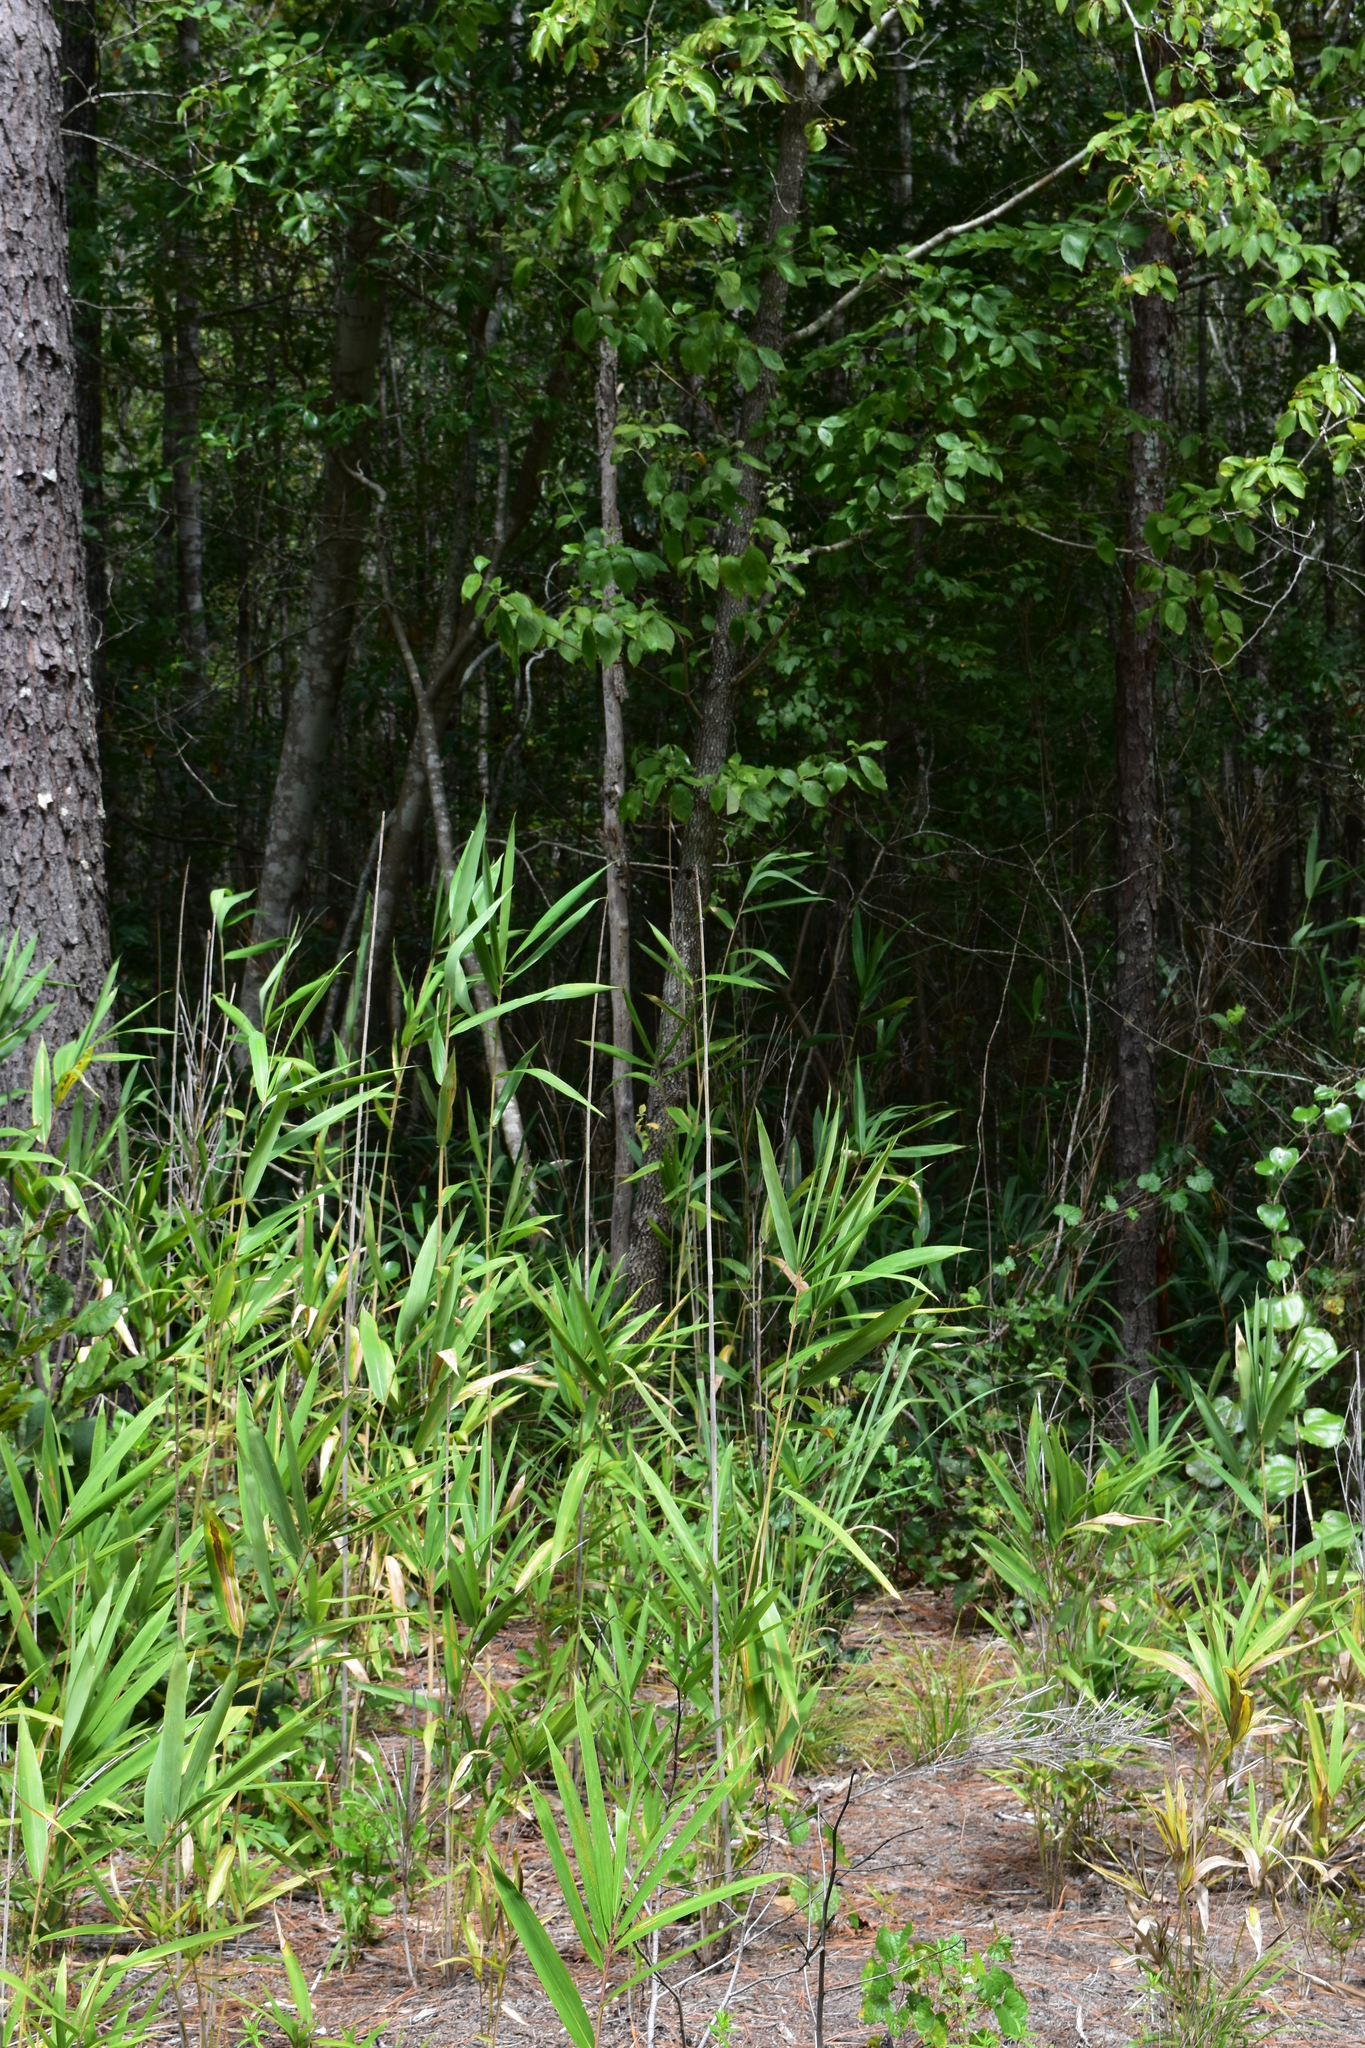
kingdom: Plantae
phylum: Tracheophyta
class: Liliopsida
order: Poales
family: Poaceae
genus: Arundinaria
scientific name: Arundinaria tecta
